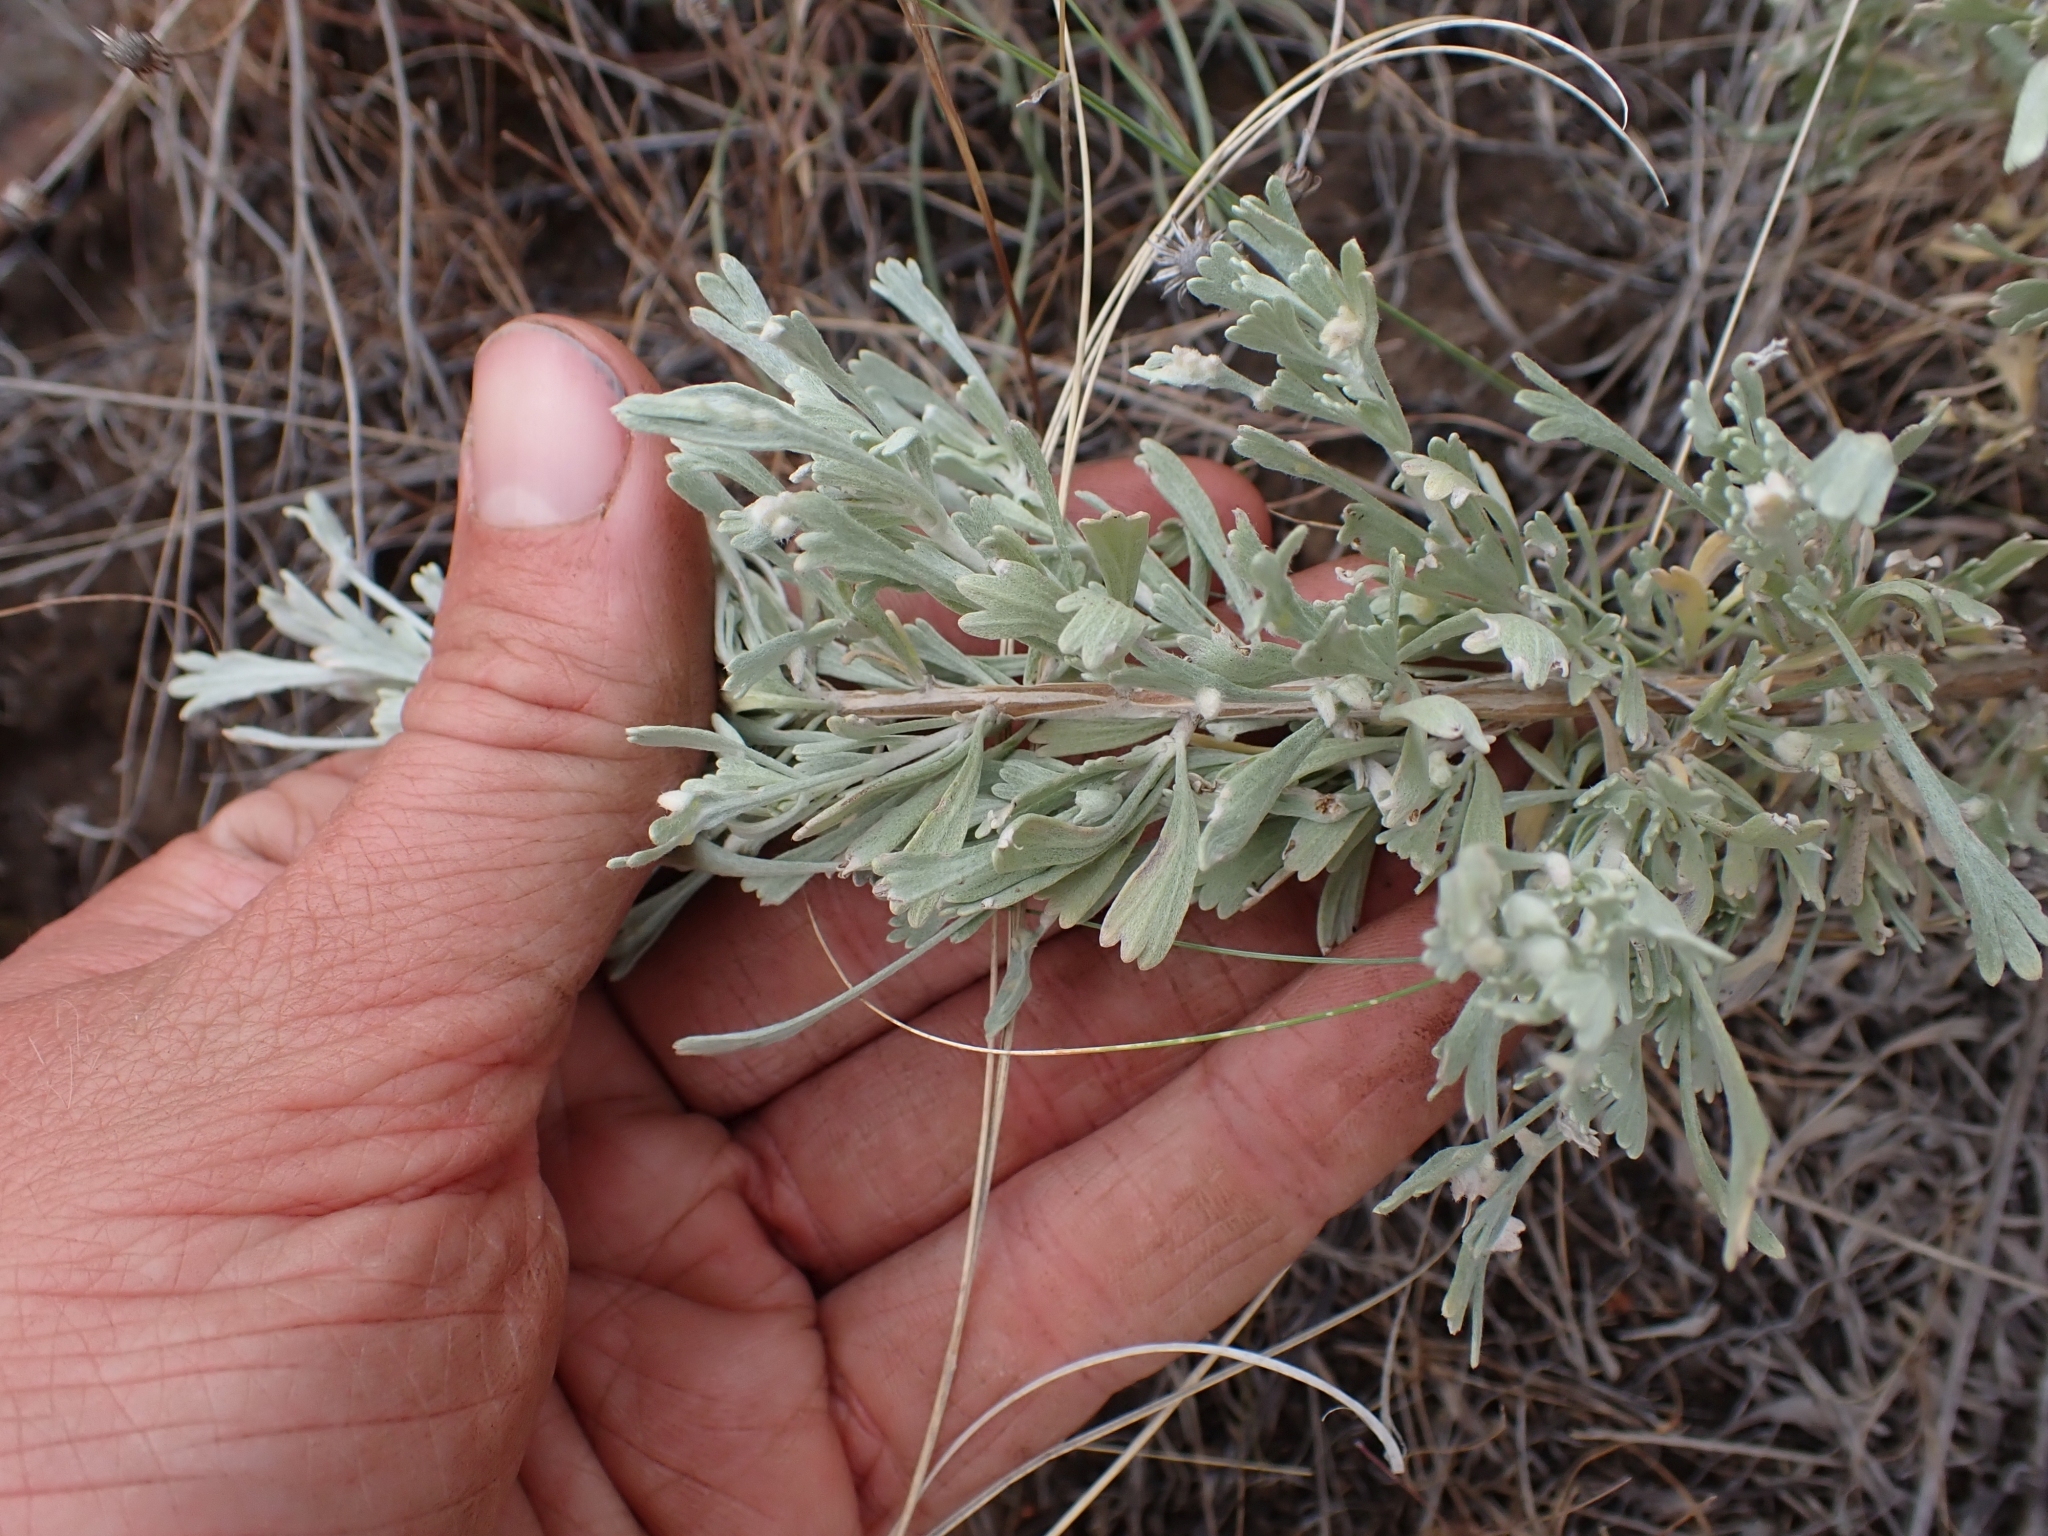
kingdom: Plantae
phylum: Tracheophyta
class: Magnoliopsida
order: Asterales
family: Asteraceae
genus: Artemisia
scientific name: Artemisia tridentata
